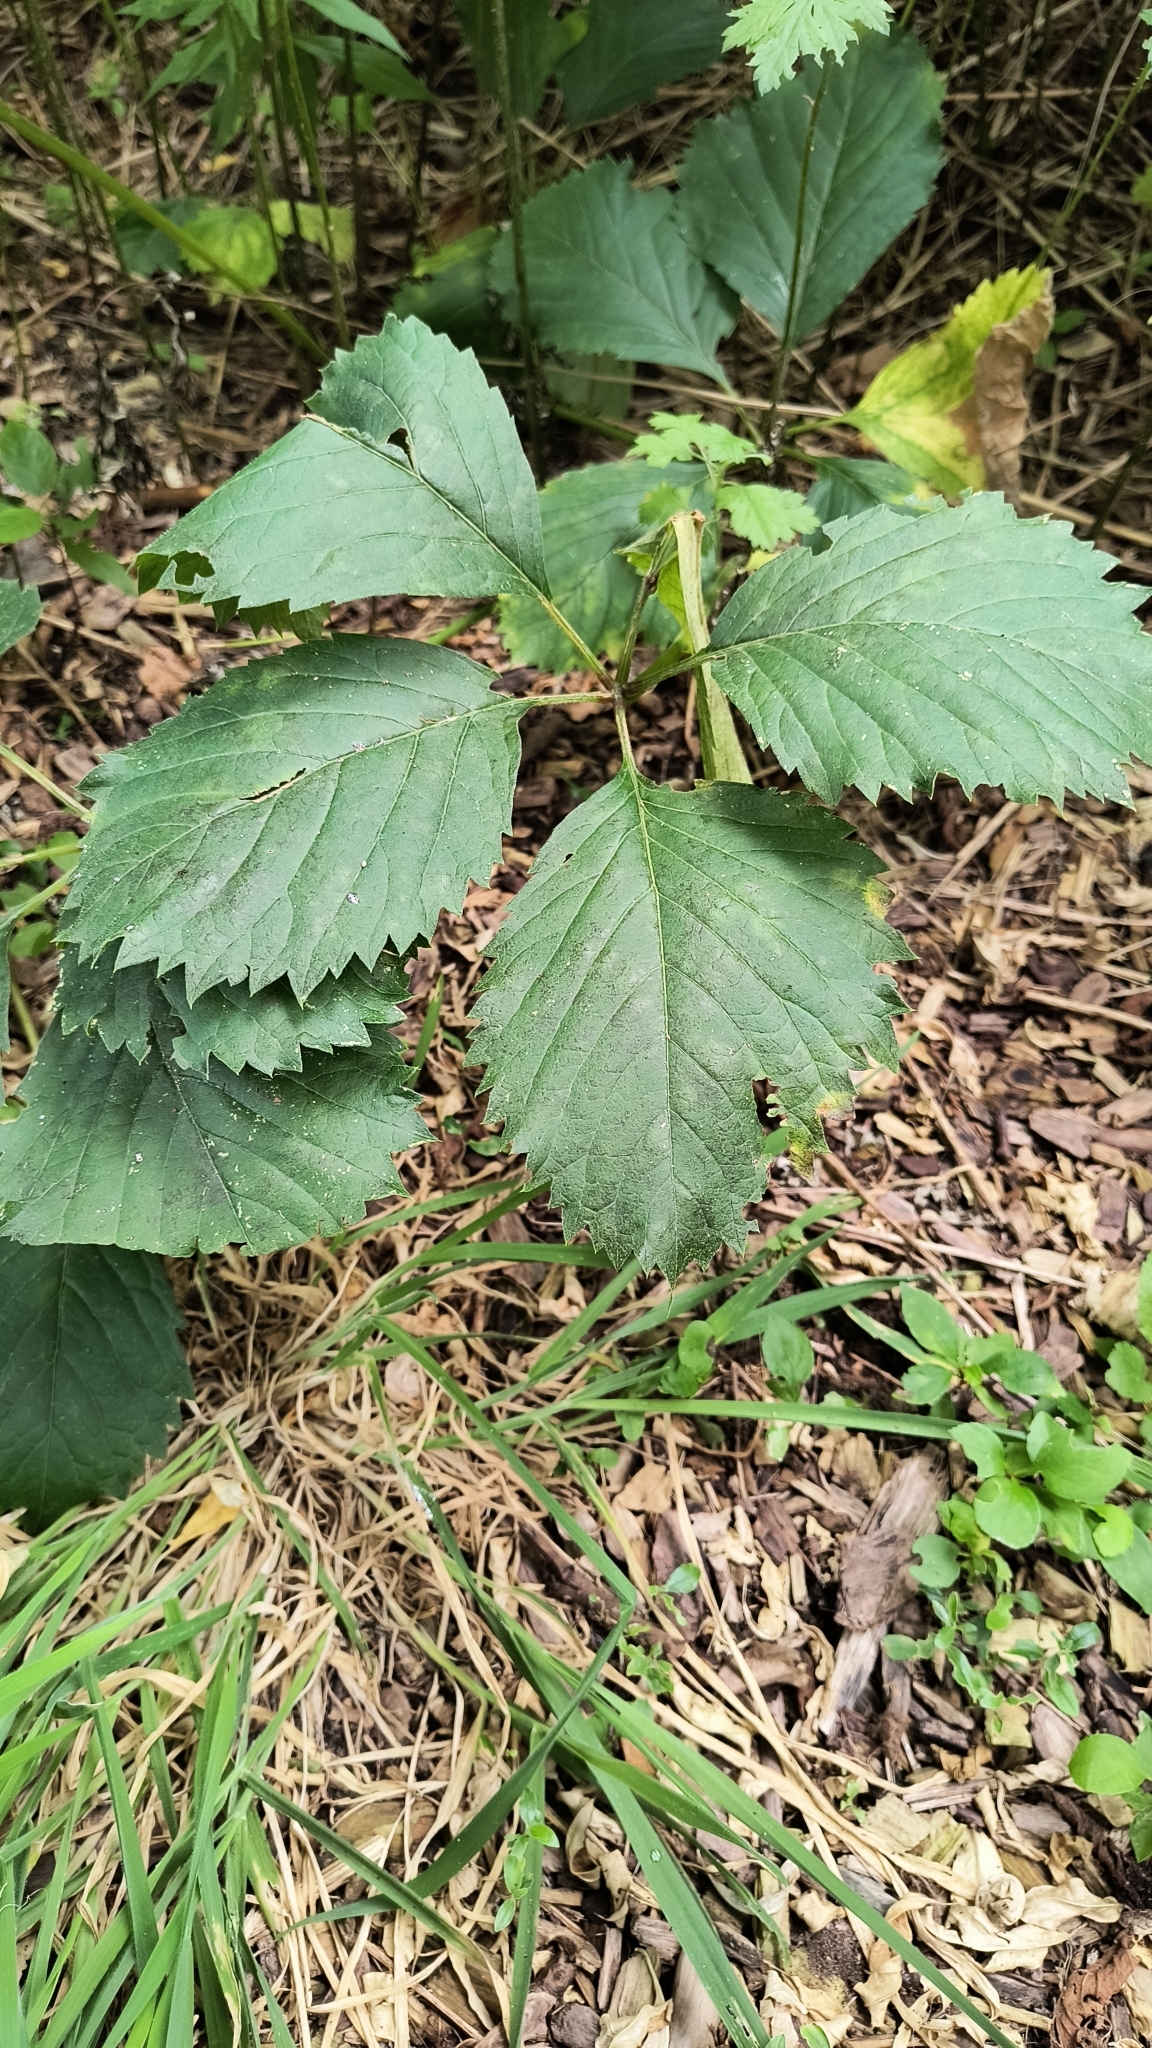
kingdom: Plantae
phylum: Tracheophyta
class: Magnoliopsida
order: Vitales
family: Vitaceae
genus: Parthenocissus
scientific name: Parthenocissus inserta
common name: False virginia-creeper
